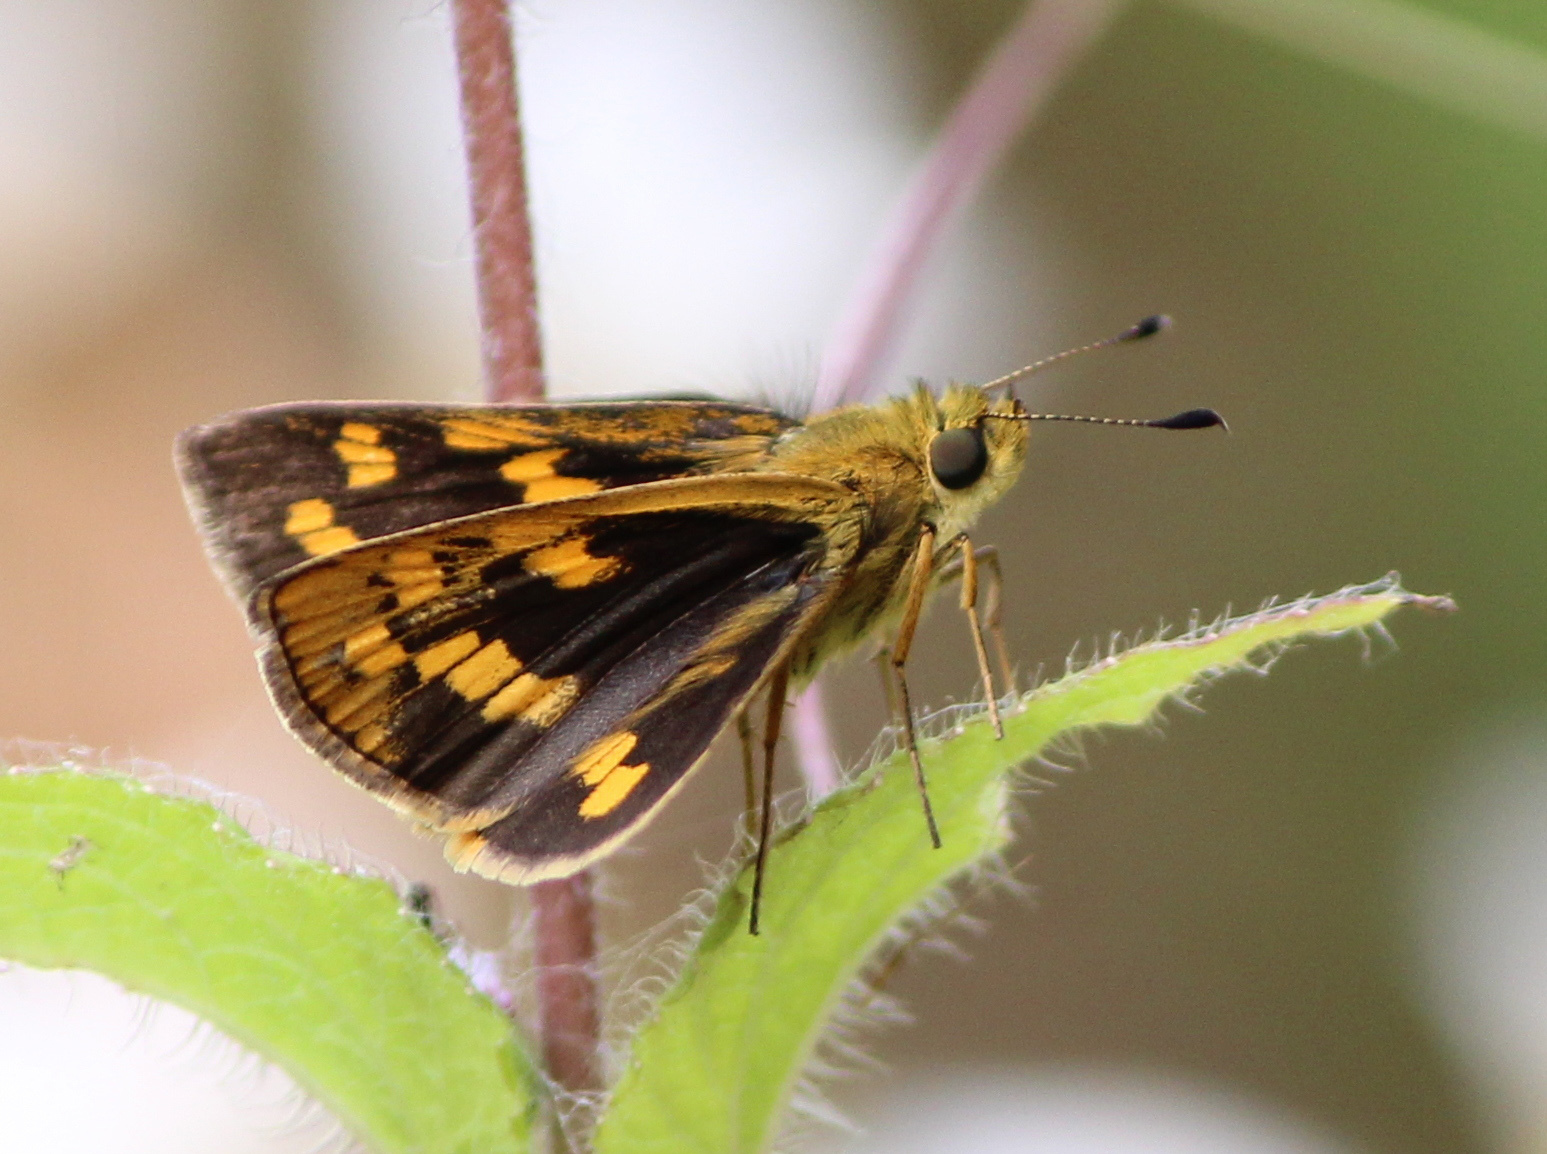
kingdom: Animalia
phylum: Arthropoda
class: Insecta
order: Lepidoptera
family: Hesperiidae
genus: Potanthus
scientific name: Potanthus palnia
